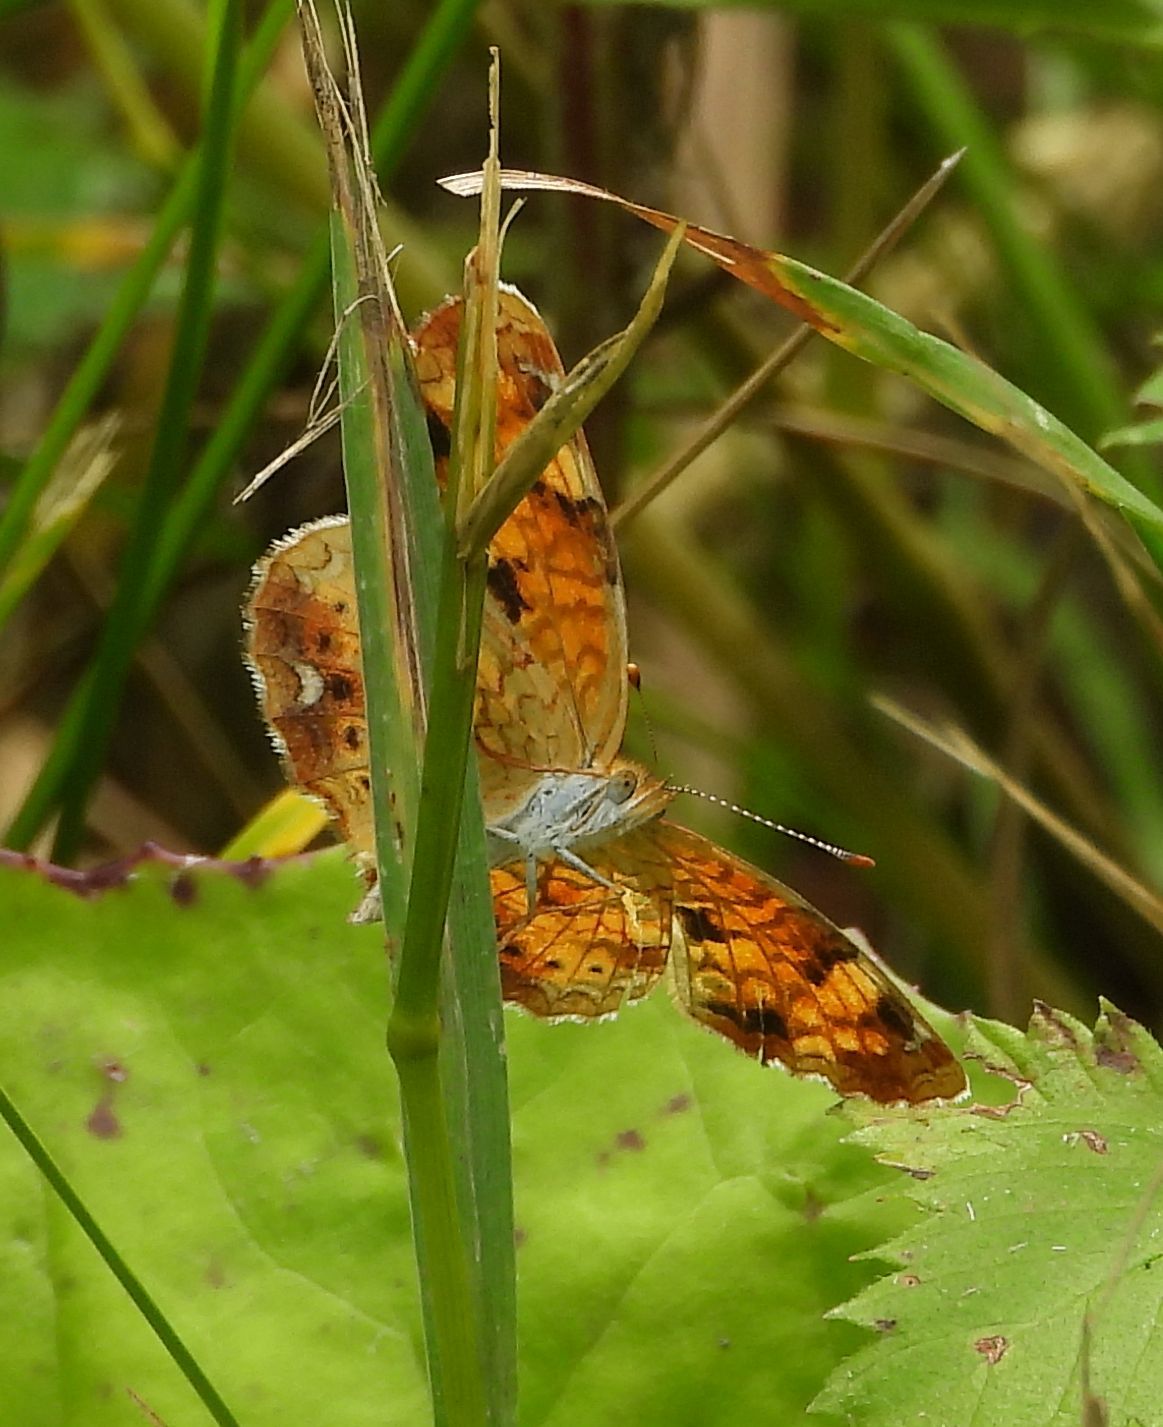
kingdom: Animalia
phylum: Arthropoda
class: Insecta
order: Lepidoptera
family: Nymphalidae
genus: Phyciodes
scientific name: Phyciodes tharos
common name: Pearl crescent
